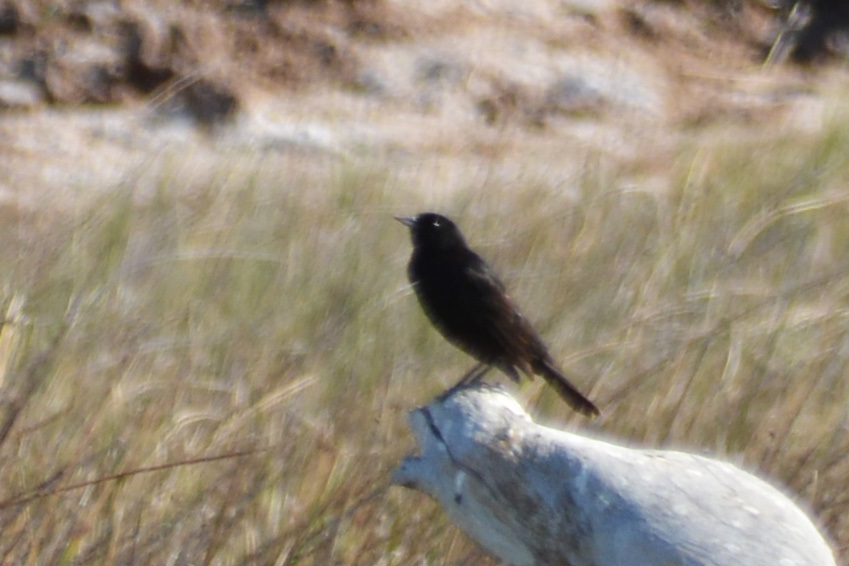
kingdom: Animalia
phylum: Chordata
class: Aves
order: Passeriformes
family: Icteridae
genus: Agelasticus
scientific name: Agelasticus thilius
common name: Yellow-winged blackbird
